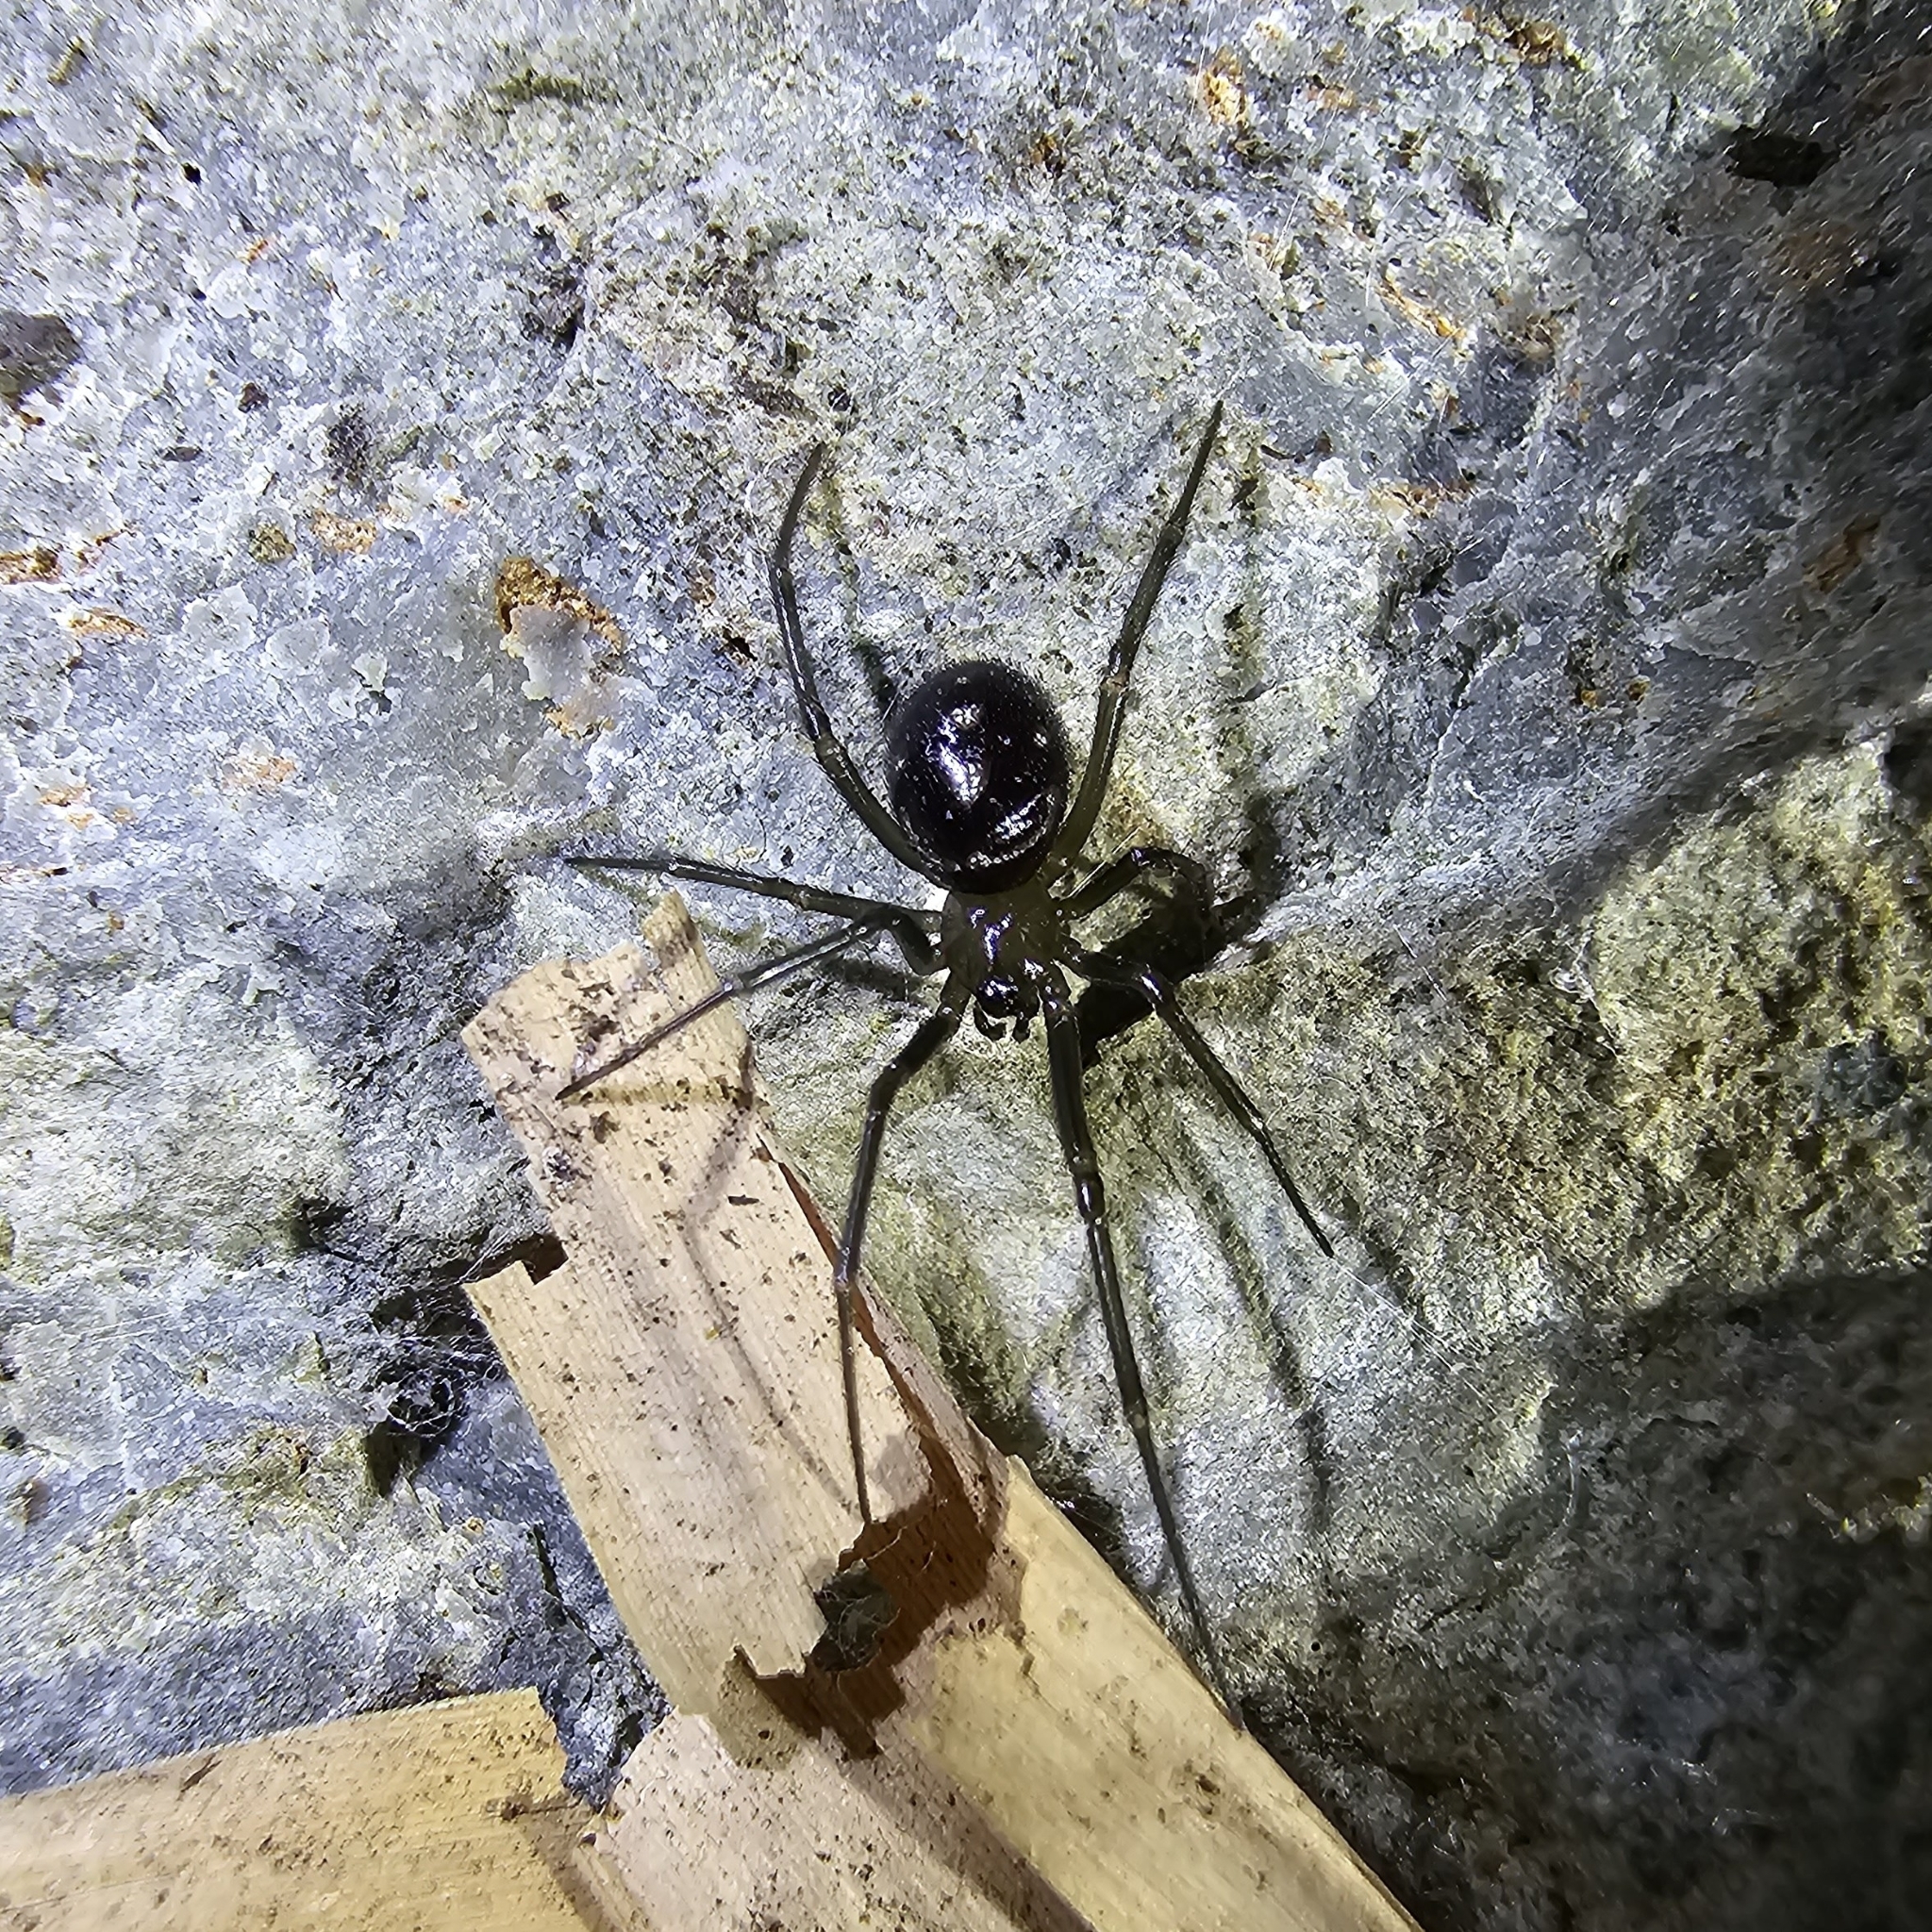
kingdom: Animalia
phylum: Arthropoda
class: Arachnida
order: Araneae
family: Theridiidae
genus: Steatoda
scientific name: Steatoda grossa
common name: False black widow
